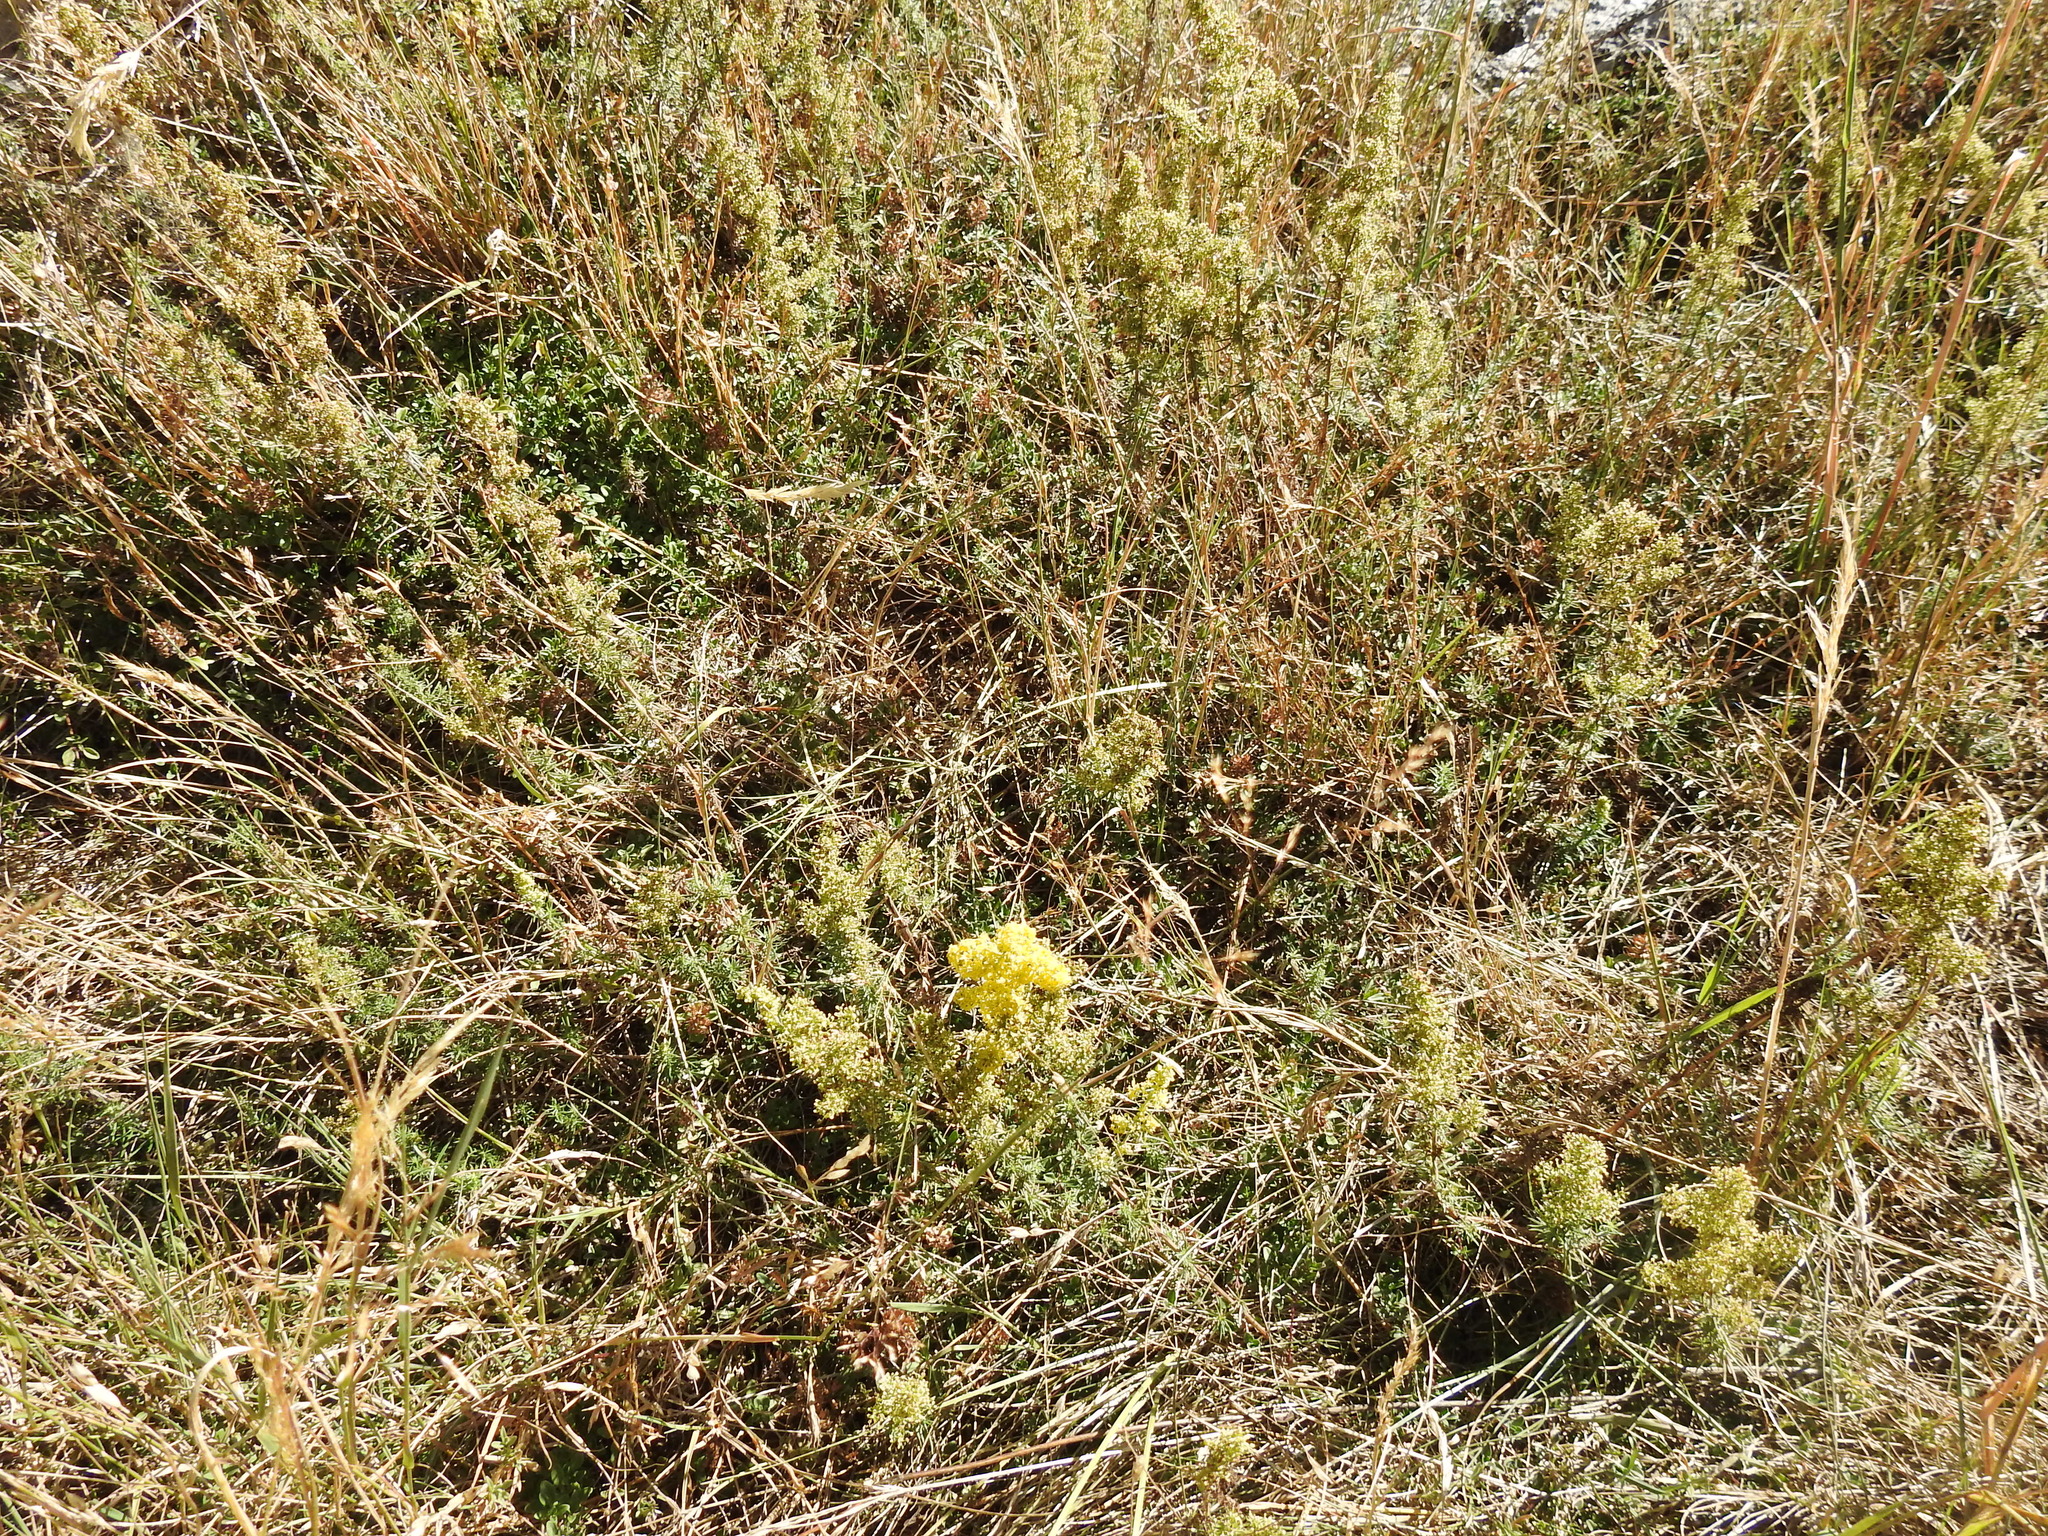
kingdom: Plantae
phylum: Tracheophyta
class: Magnoliopsida
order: Gentianales
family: Rubiaceae
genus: Galium
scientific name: Galium verum
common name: Lady's bedstraw
